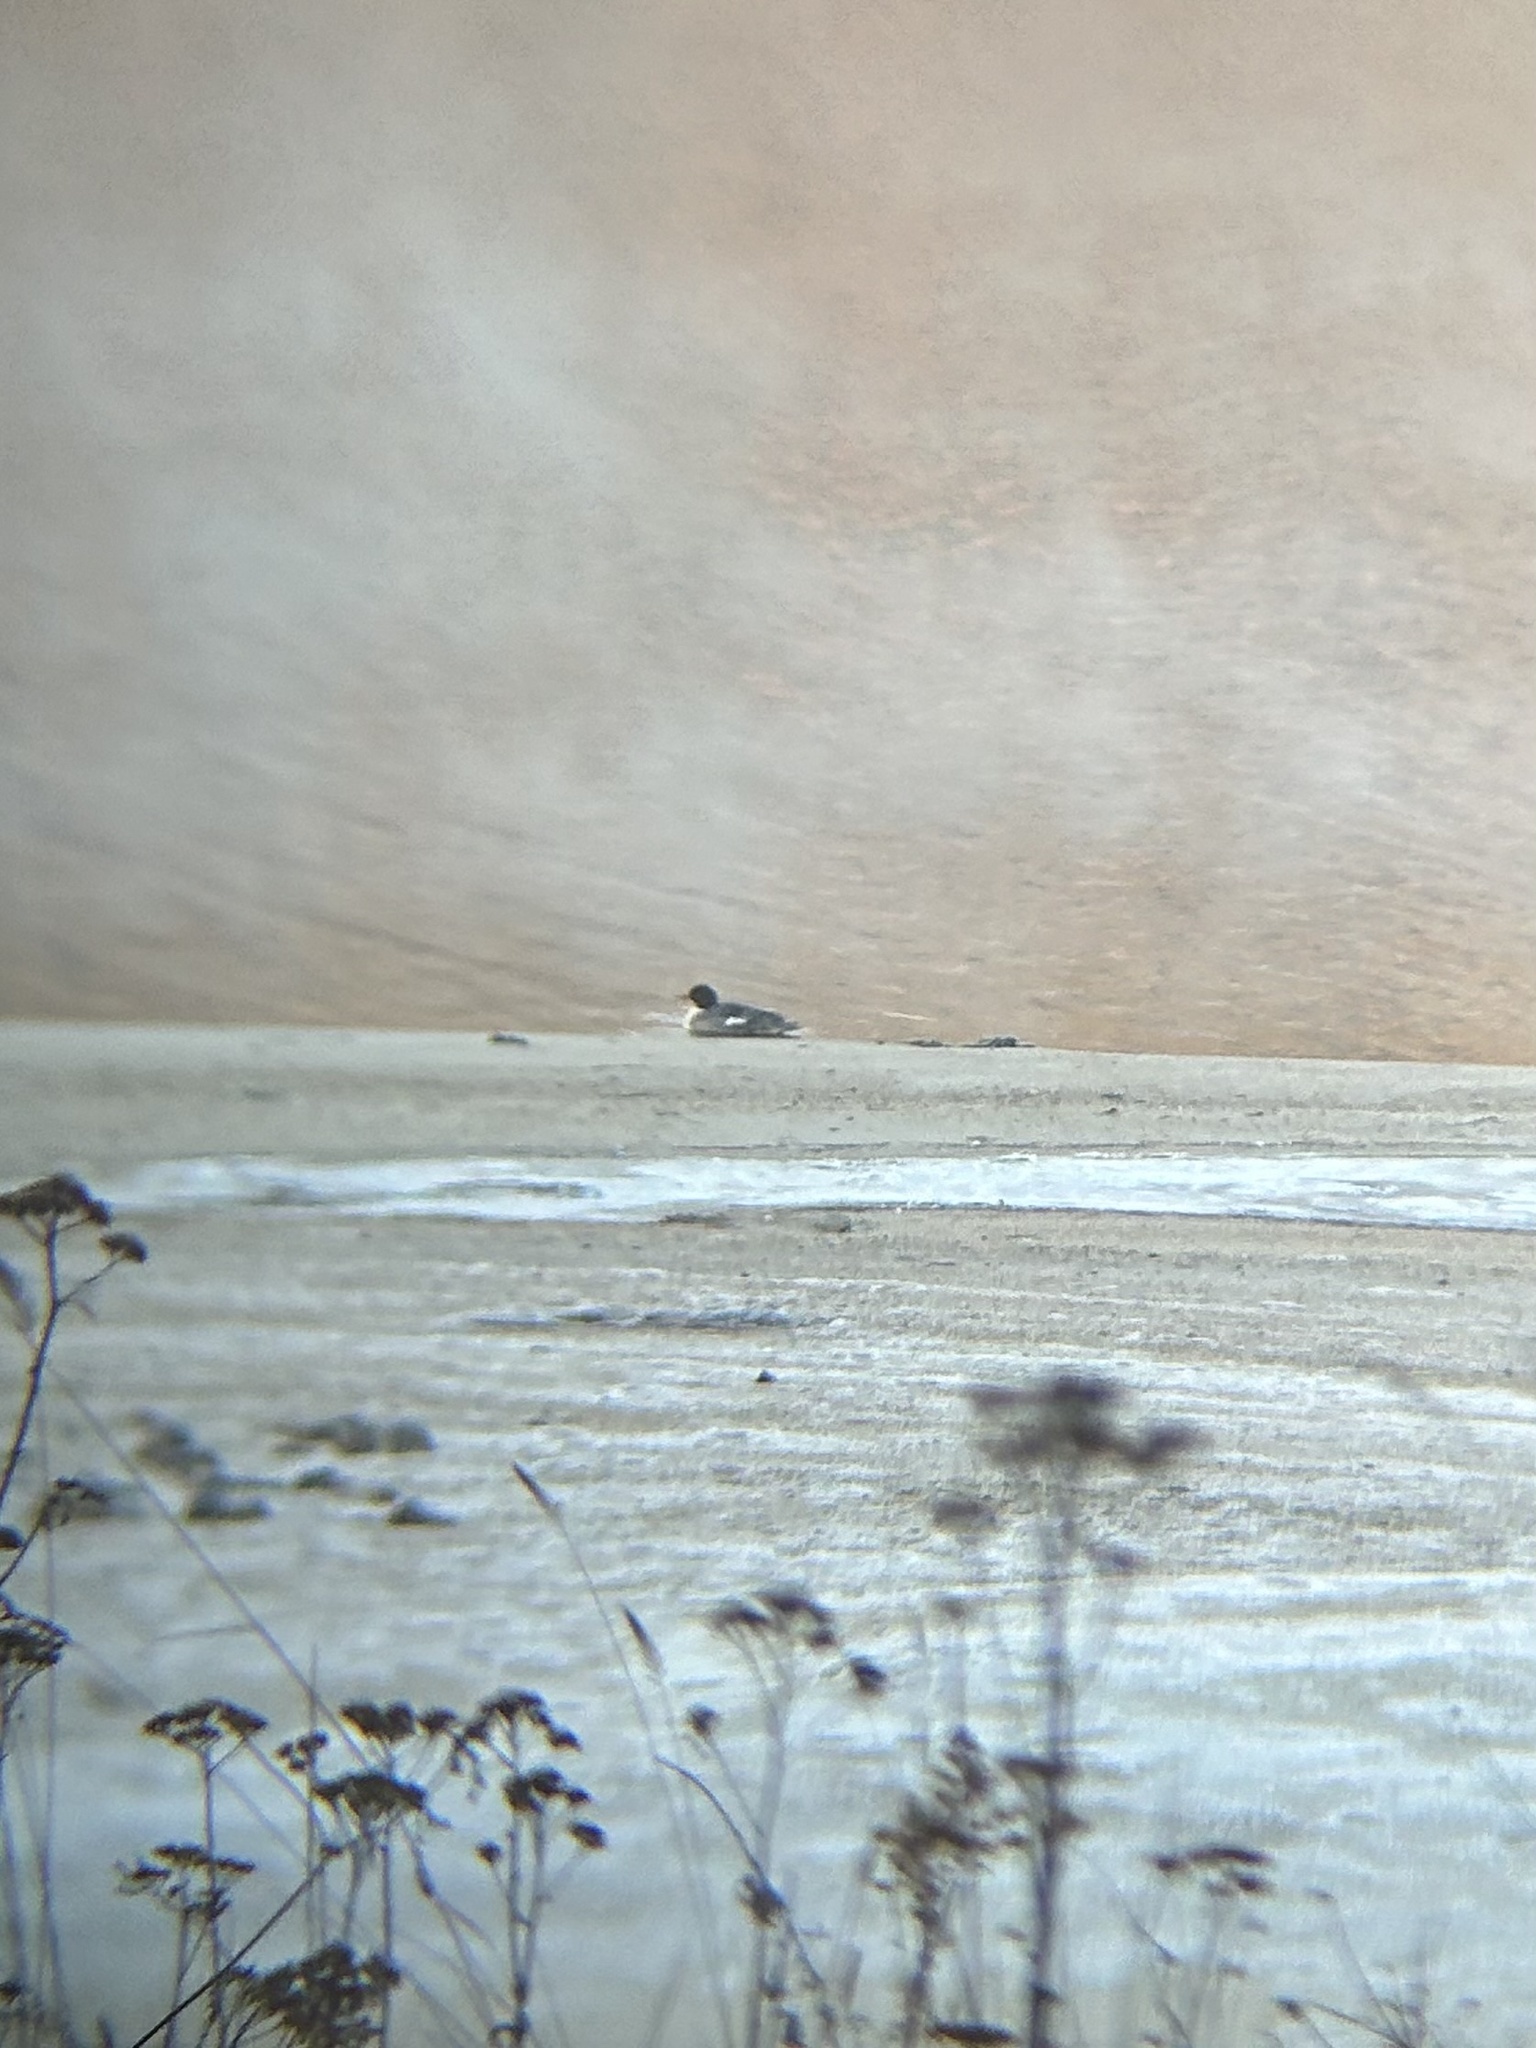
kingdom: Animalia
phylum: Chordata
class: Aves
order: Anseriformes
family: Anatidae
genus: Mergus
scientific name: Mergus merganser
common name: Common merganser
